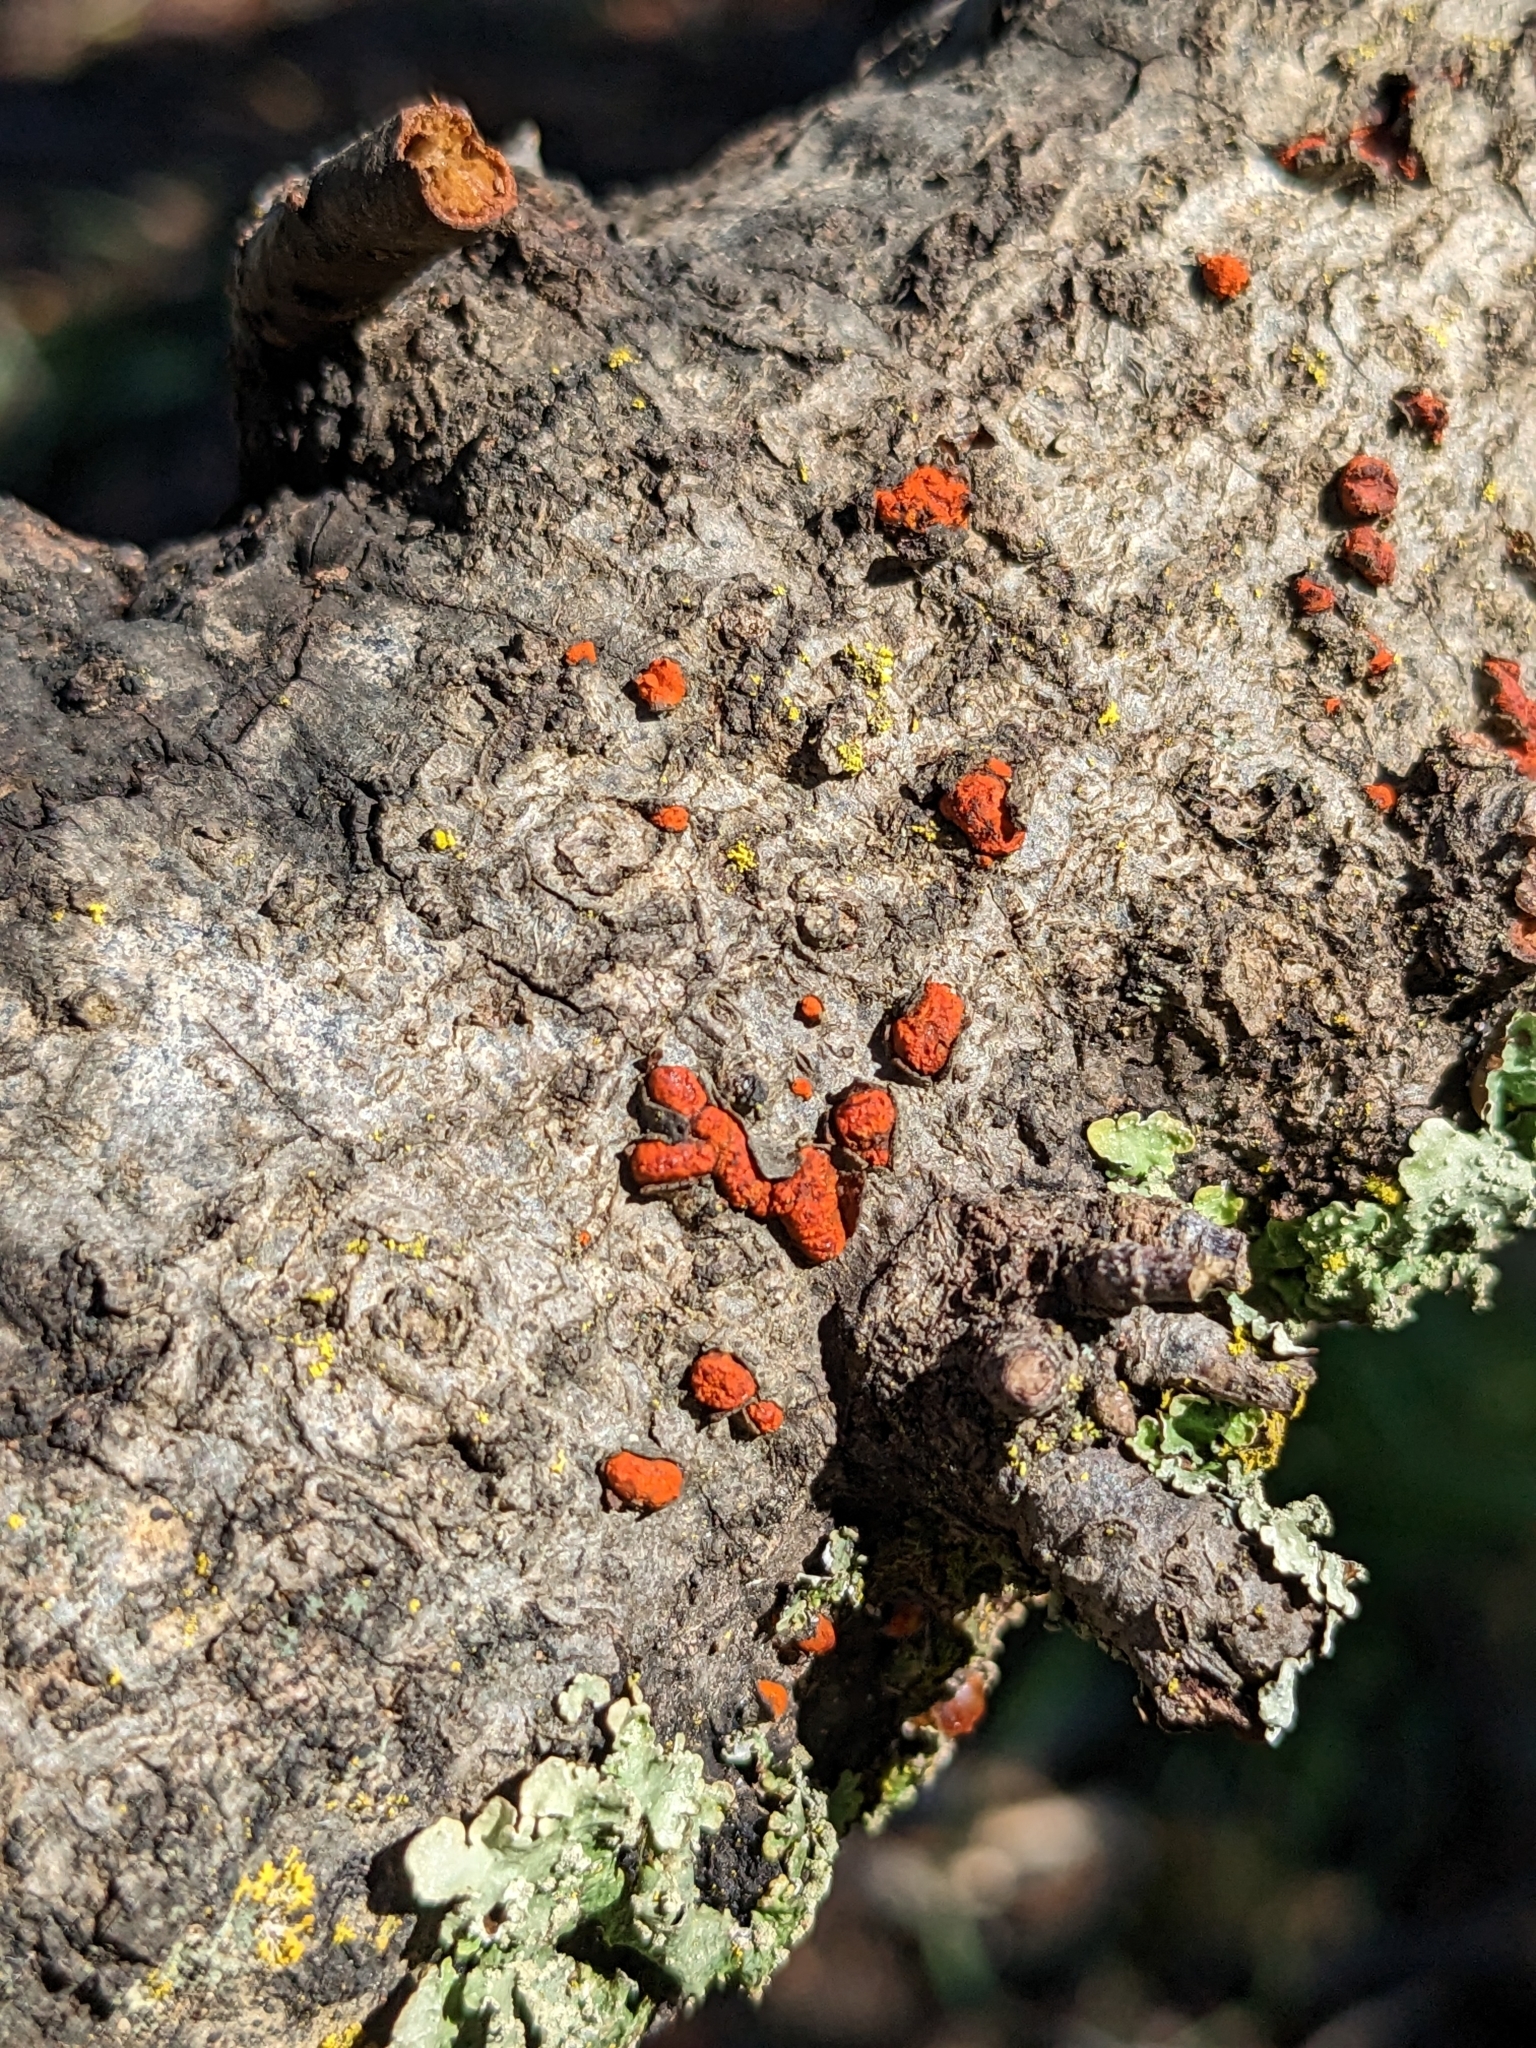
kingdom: Fungi
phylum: Ascomycota
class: Sordariomycetes
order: Diaporthales
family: Cryphonectriaceae
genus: Amphilogia
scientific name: Amphilogia gyrosa
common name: Orange hobnail canker
